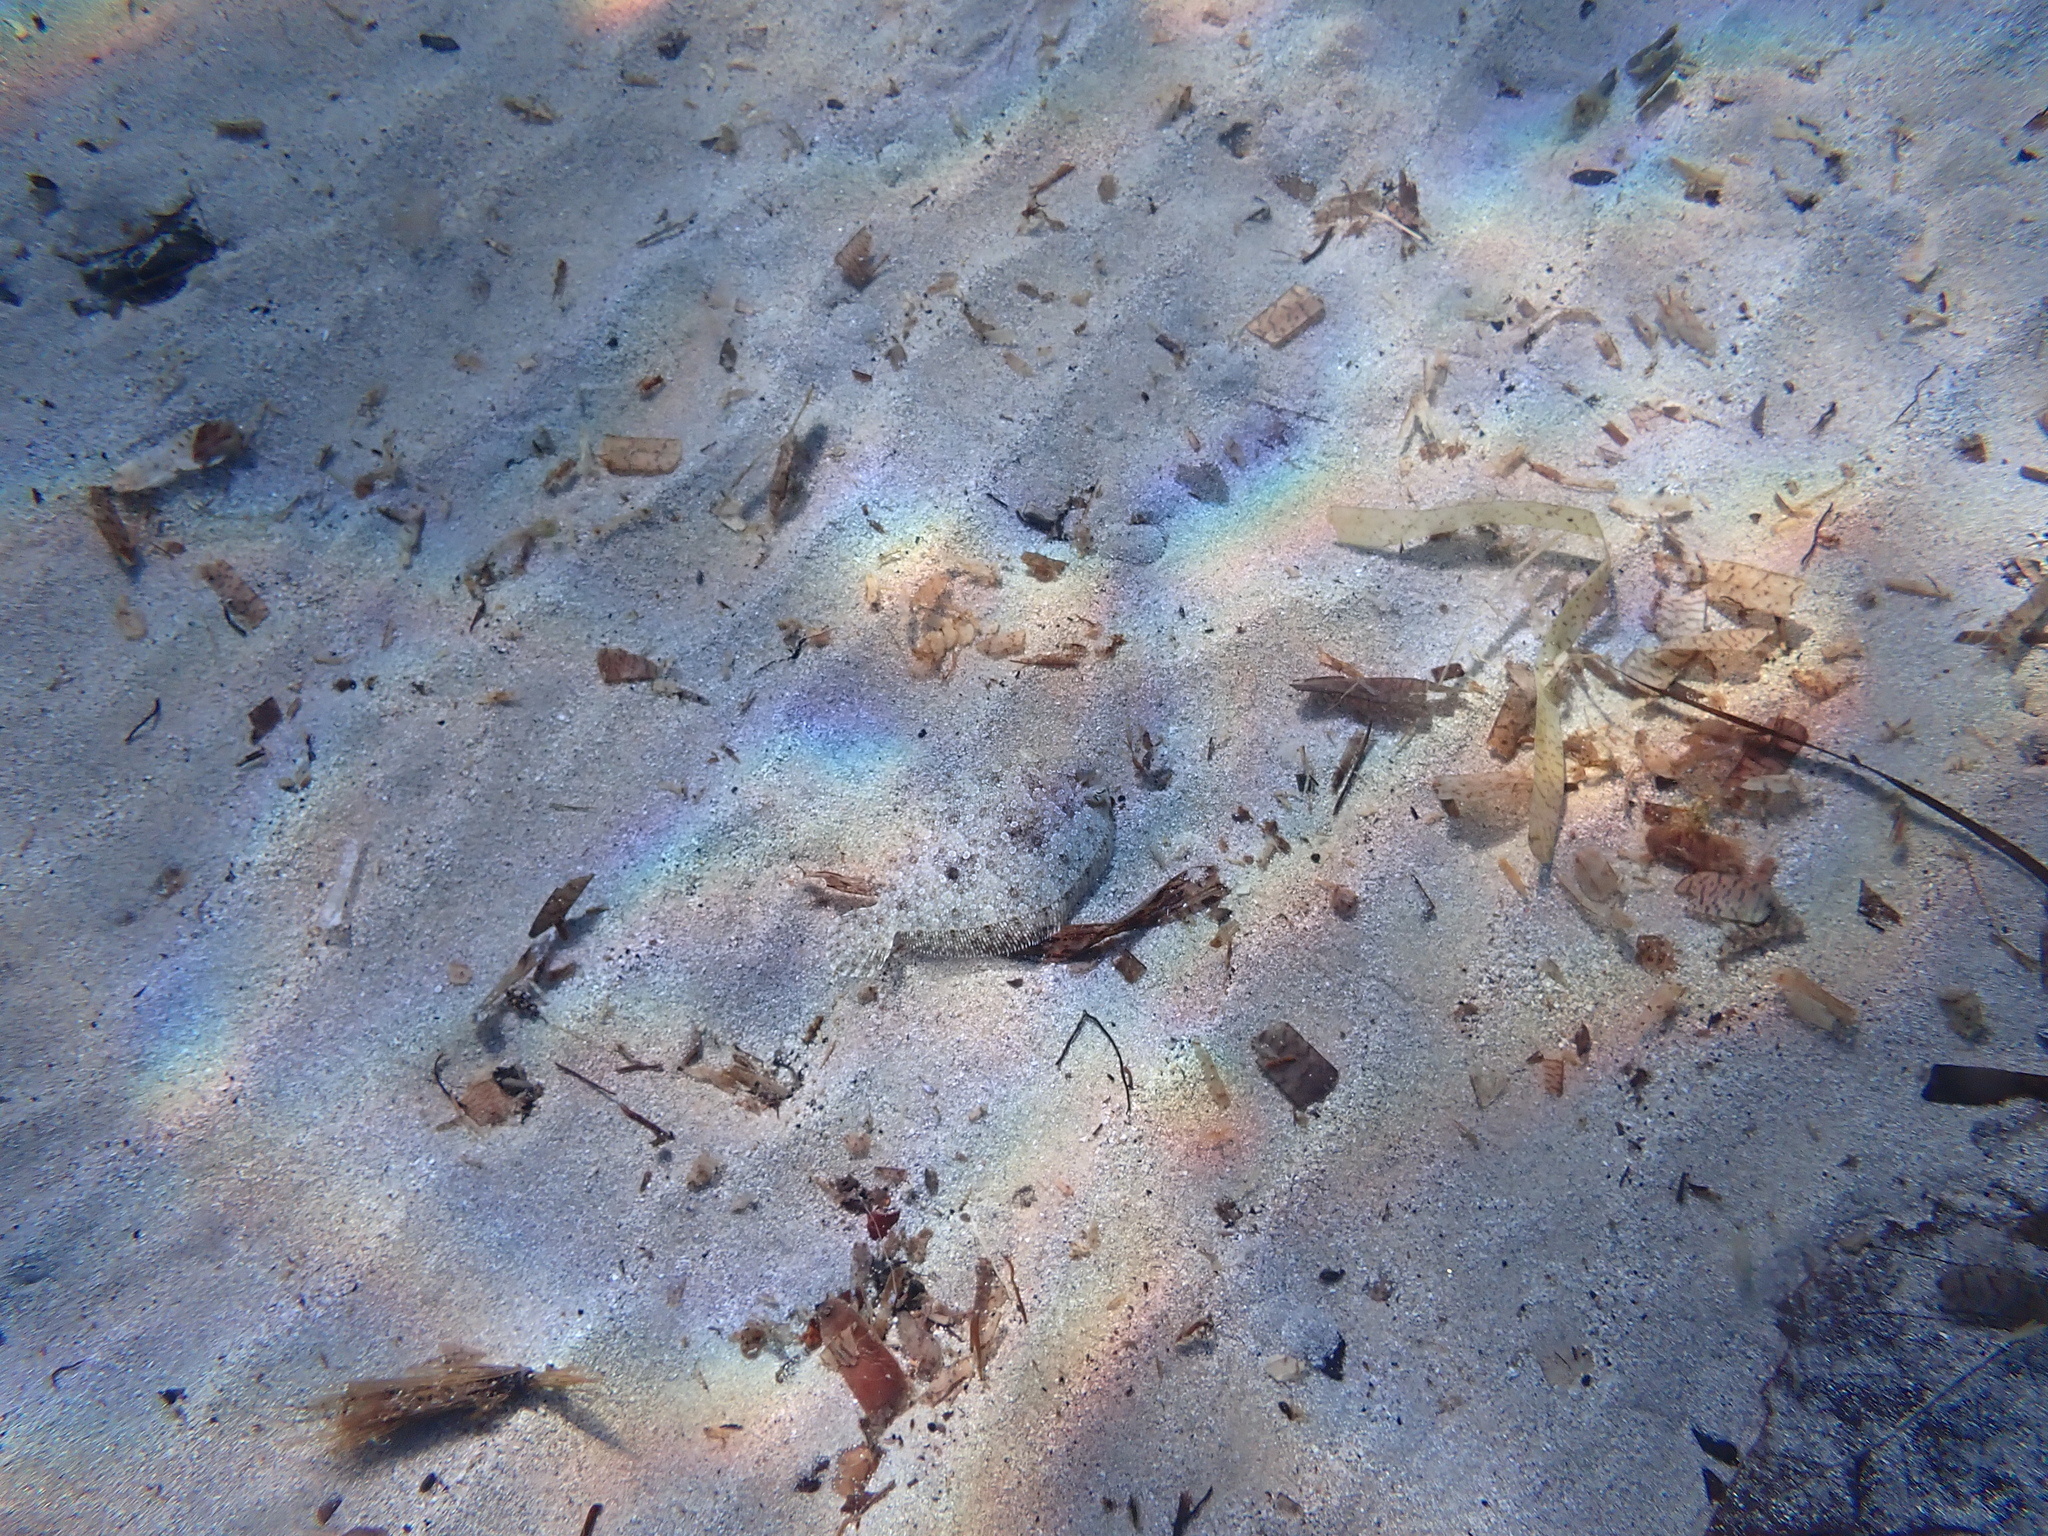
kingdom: Animalia
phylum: Chordata
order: Pleuronectiformes
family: Bothidae
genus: Bothus
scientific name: Bothus podas
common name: Wide-eyed flounder
